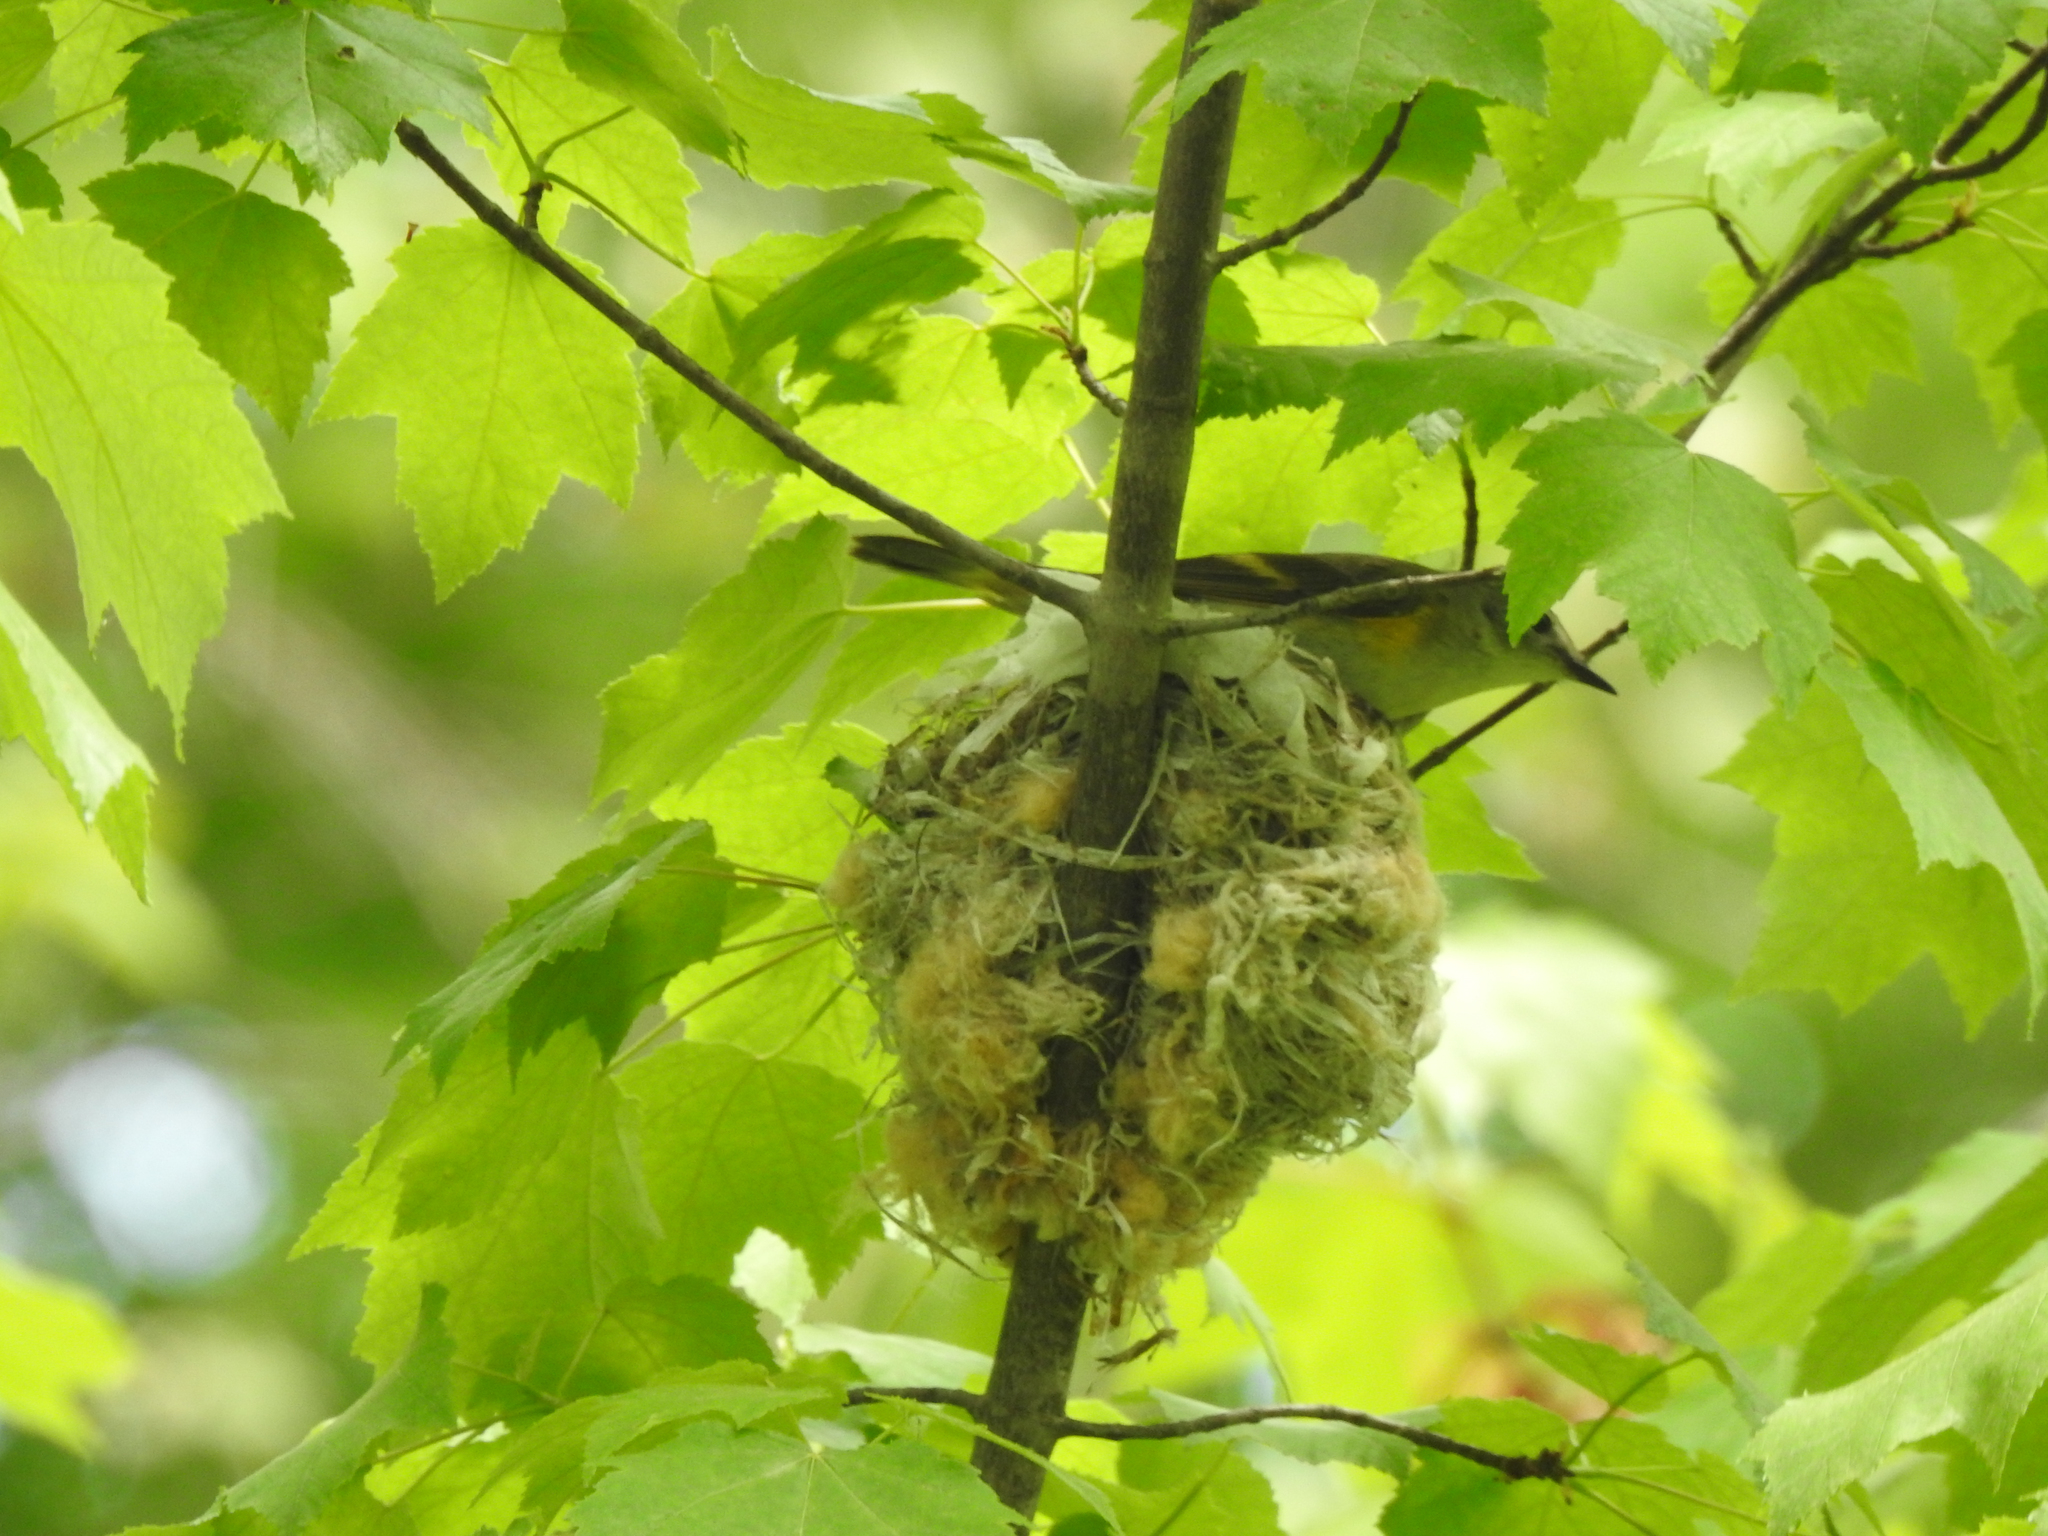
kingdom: Animalia
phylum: Chordata
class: Aves
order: Passeriformes
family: Parulidae
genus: Setophaga
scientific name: Setophaga ruticilla
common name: American redstart
